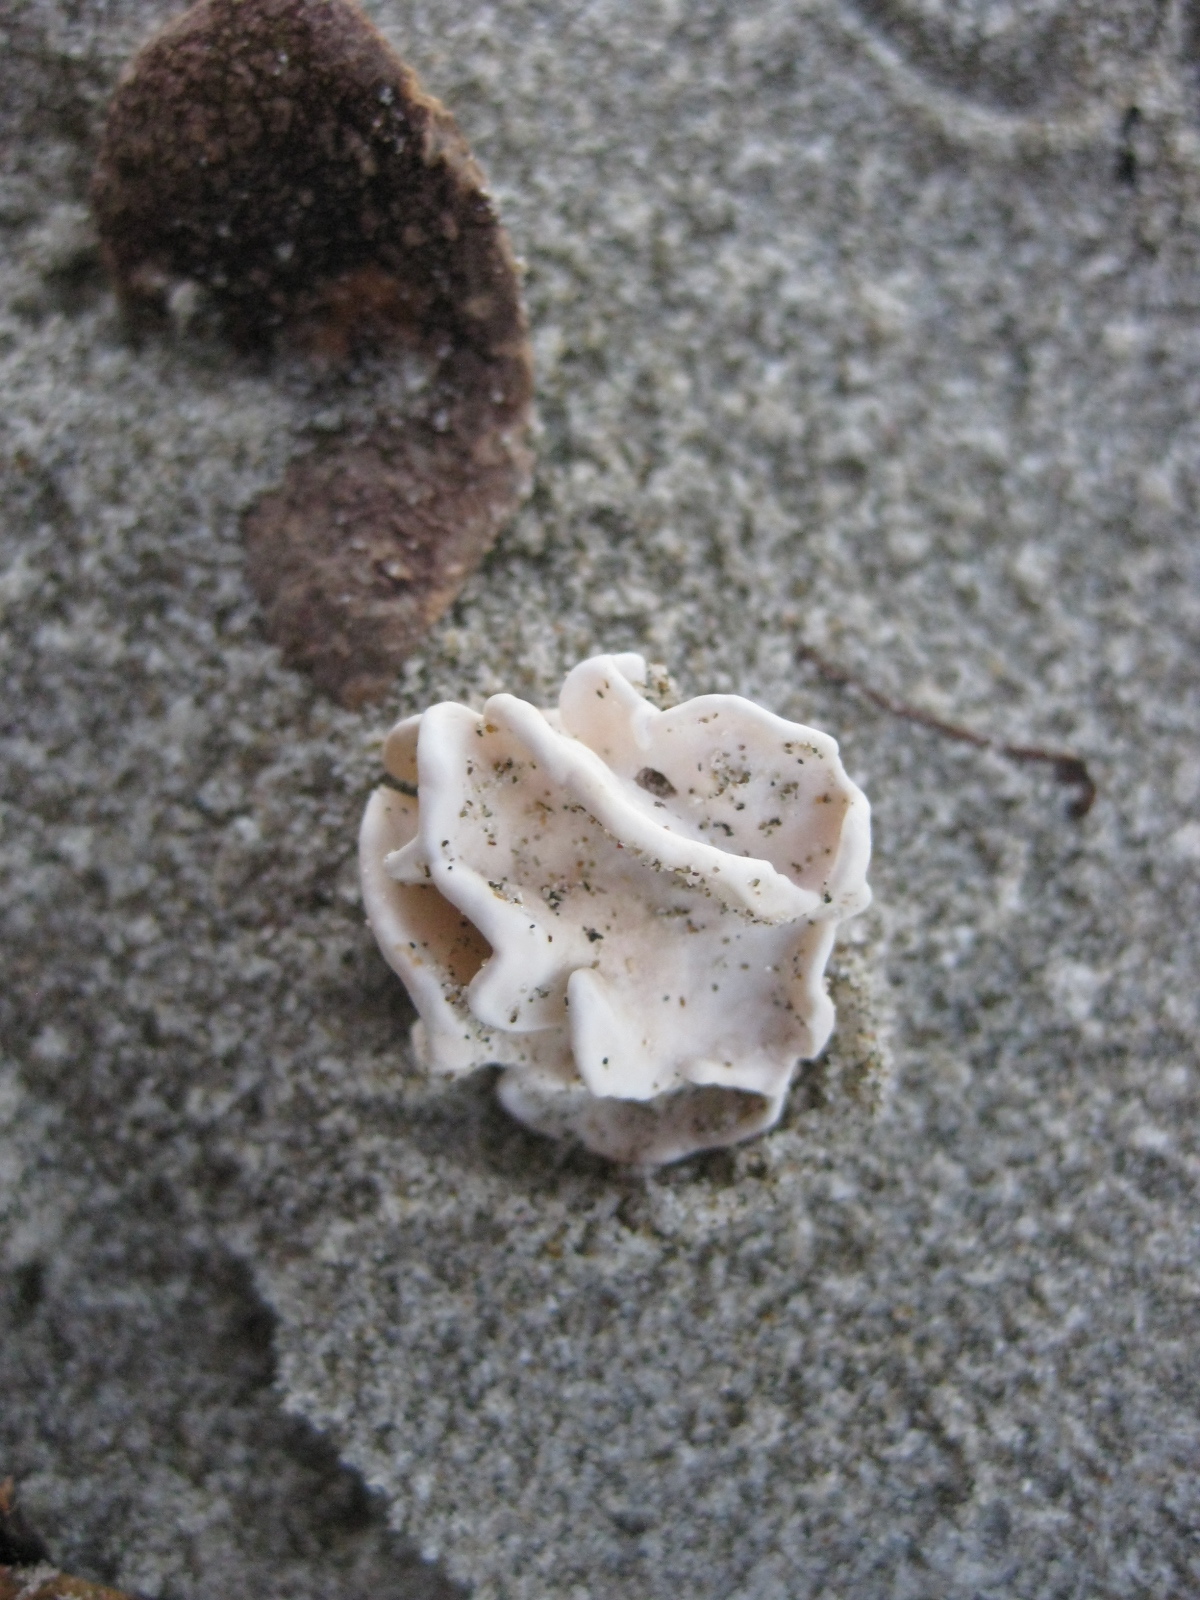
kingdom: Plantae
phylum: Rhodophyta
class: Florideophyceae
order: Corallinales
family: Lithophyllaceae
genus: Lithophyllum
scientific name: Lithophyllum carpophylli
